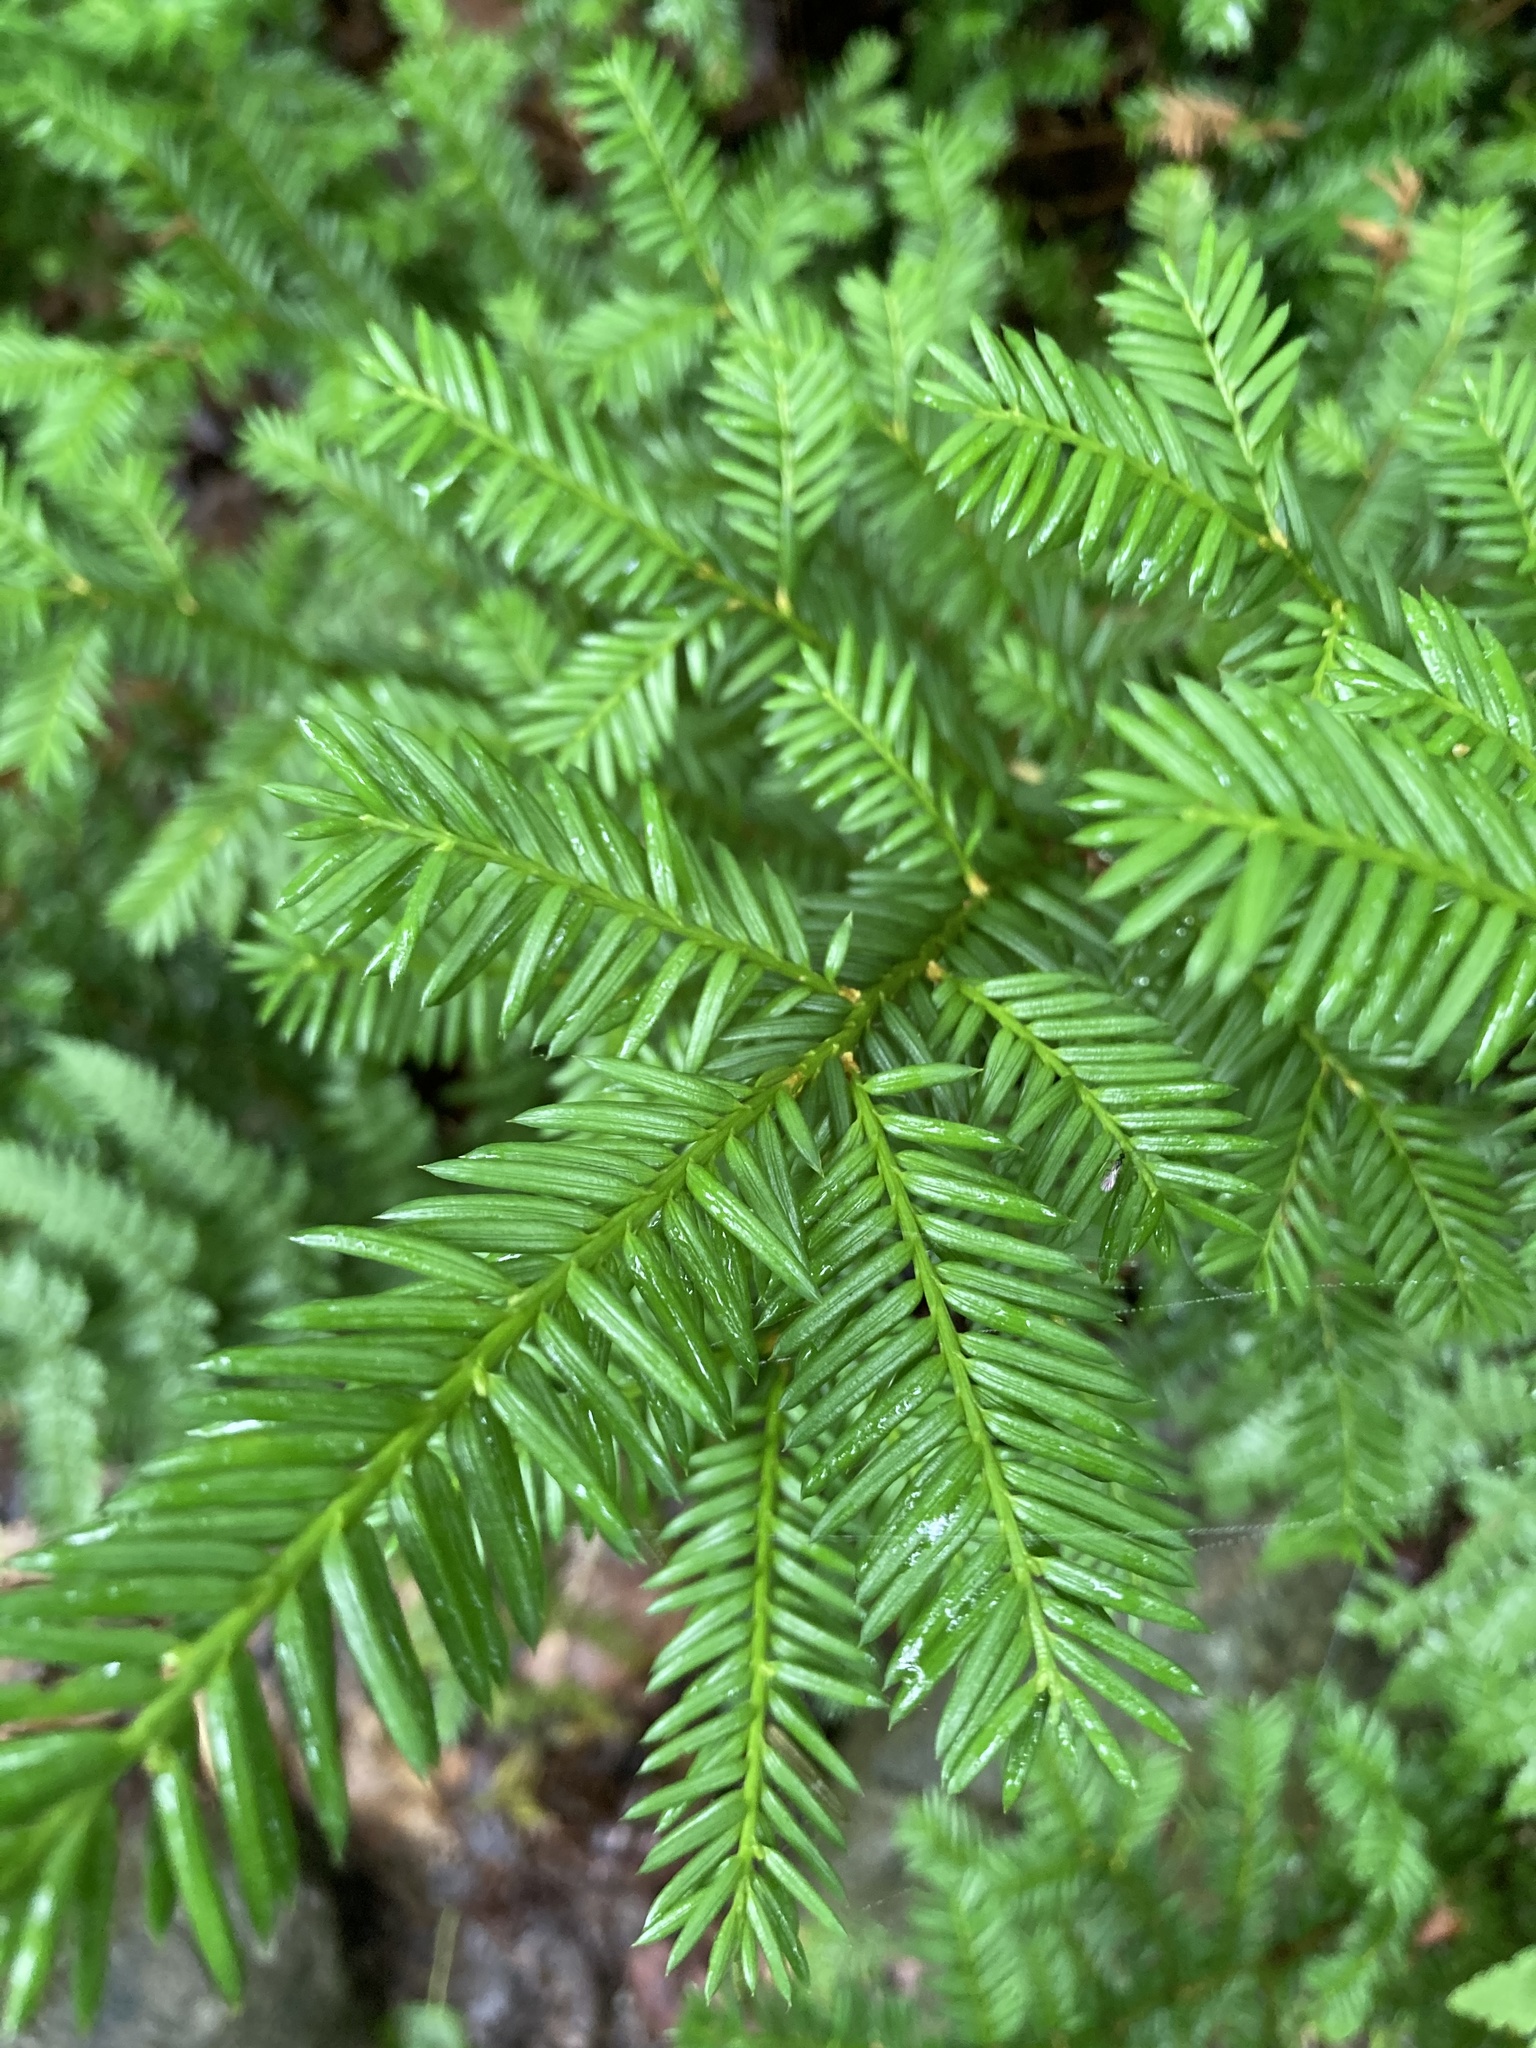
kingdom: Plantae
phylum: Tracheophyta
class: Pinopsida
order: Pinales
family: Taxaceae
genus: Taxus
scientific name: Taxus canadensis
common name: American yew
